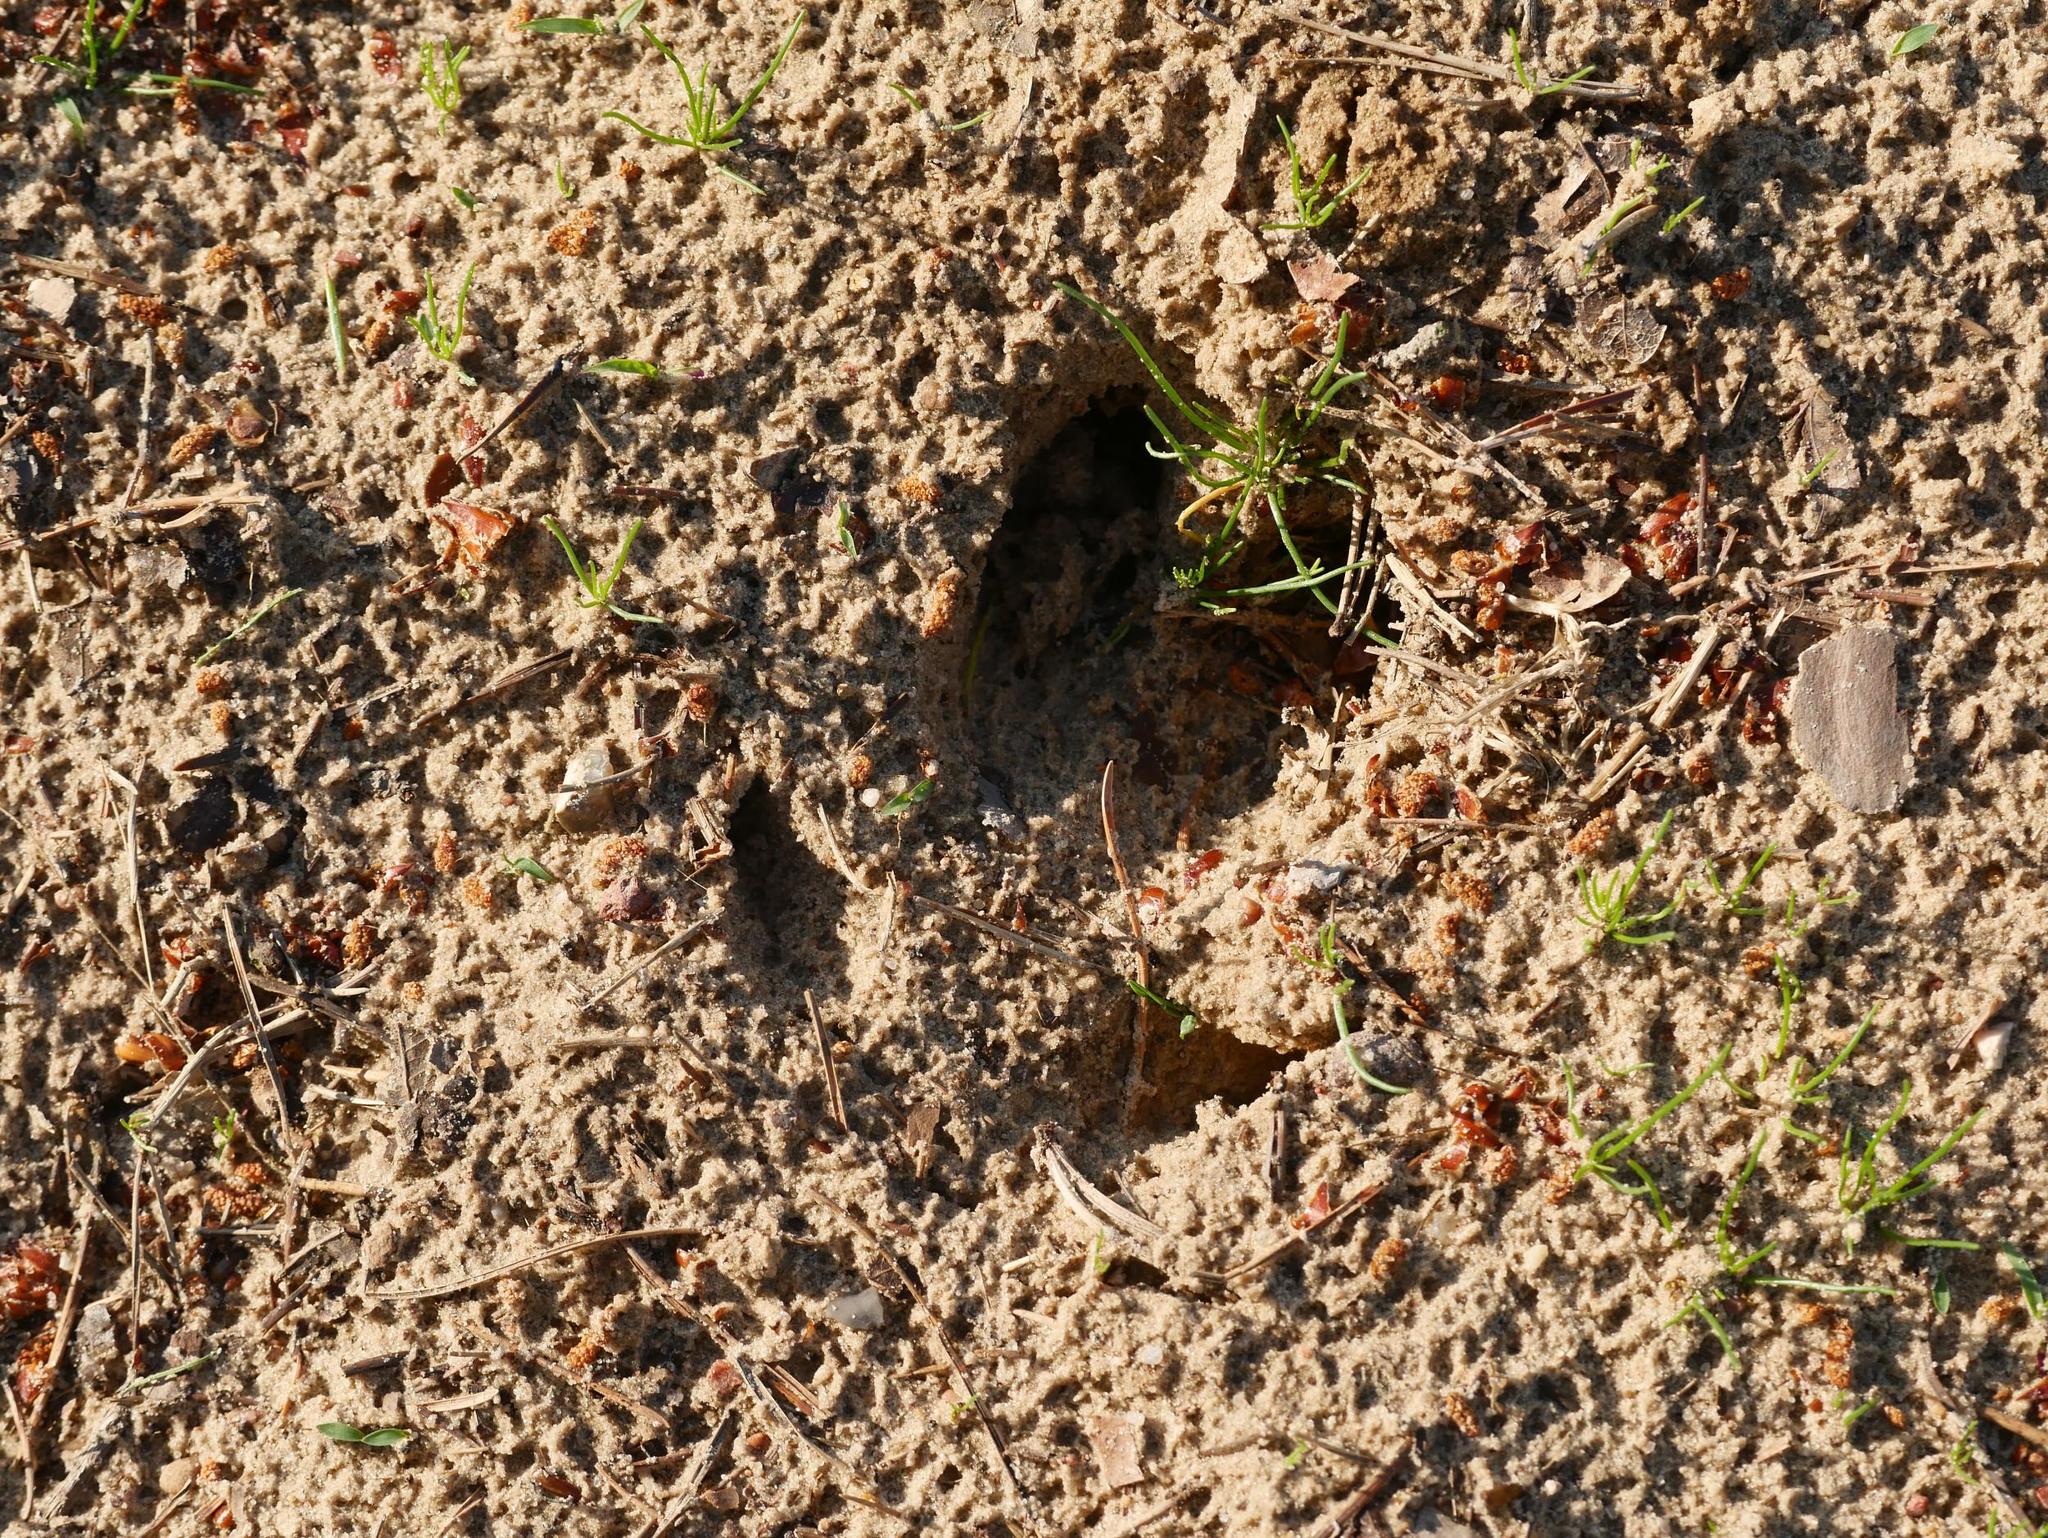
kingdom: Animalia
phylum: Chordata
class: Mammalia
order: Artiodactyla
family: Suidae
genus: Sus
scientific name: Sus scrofa
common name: Wild boar
